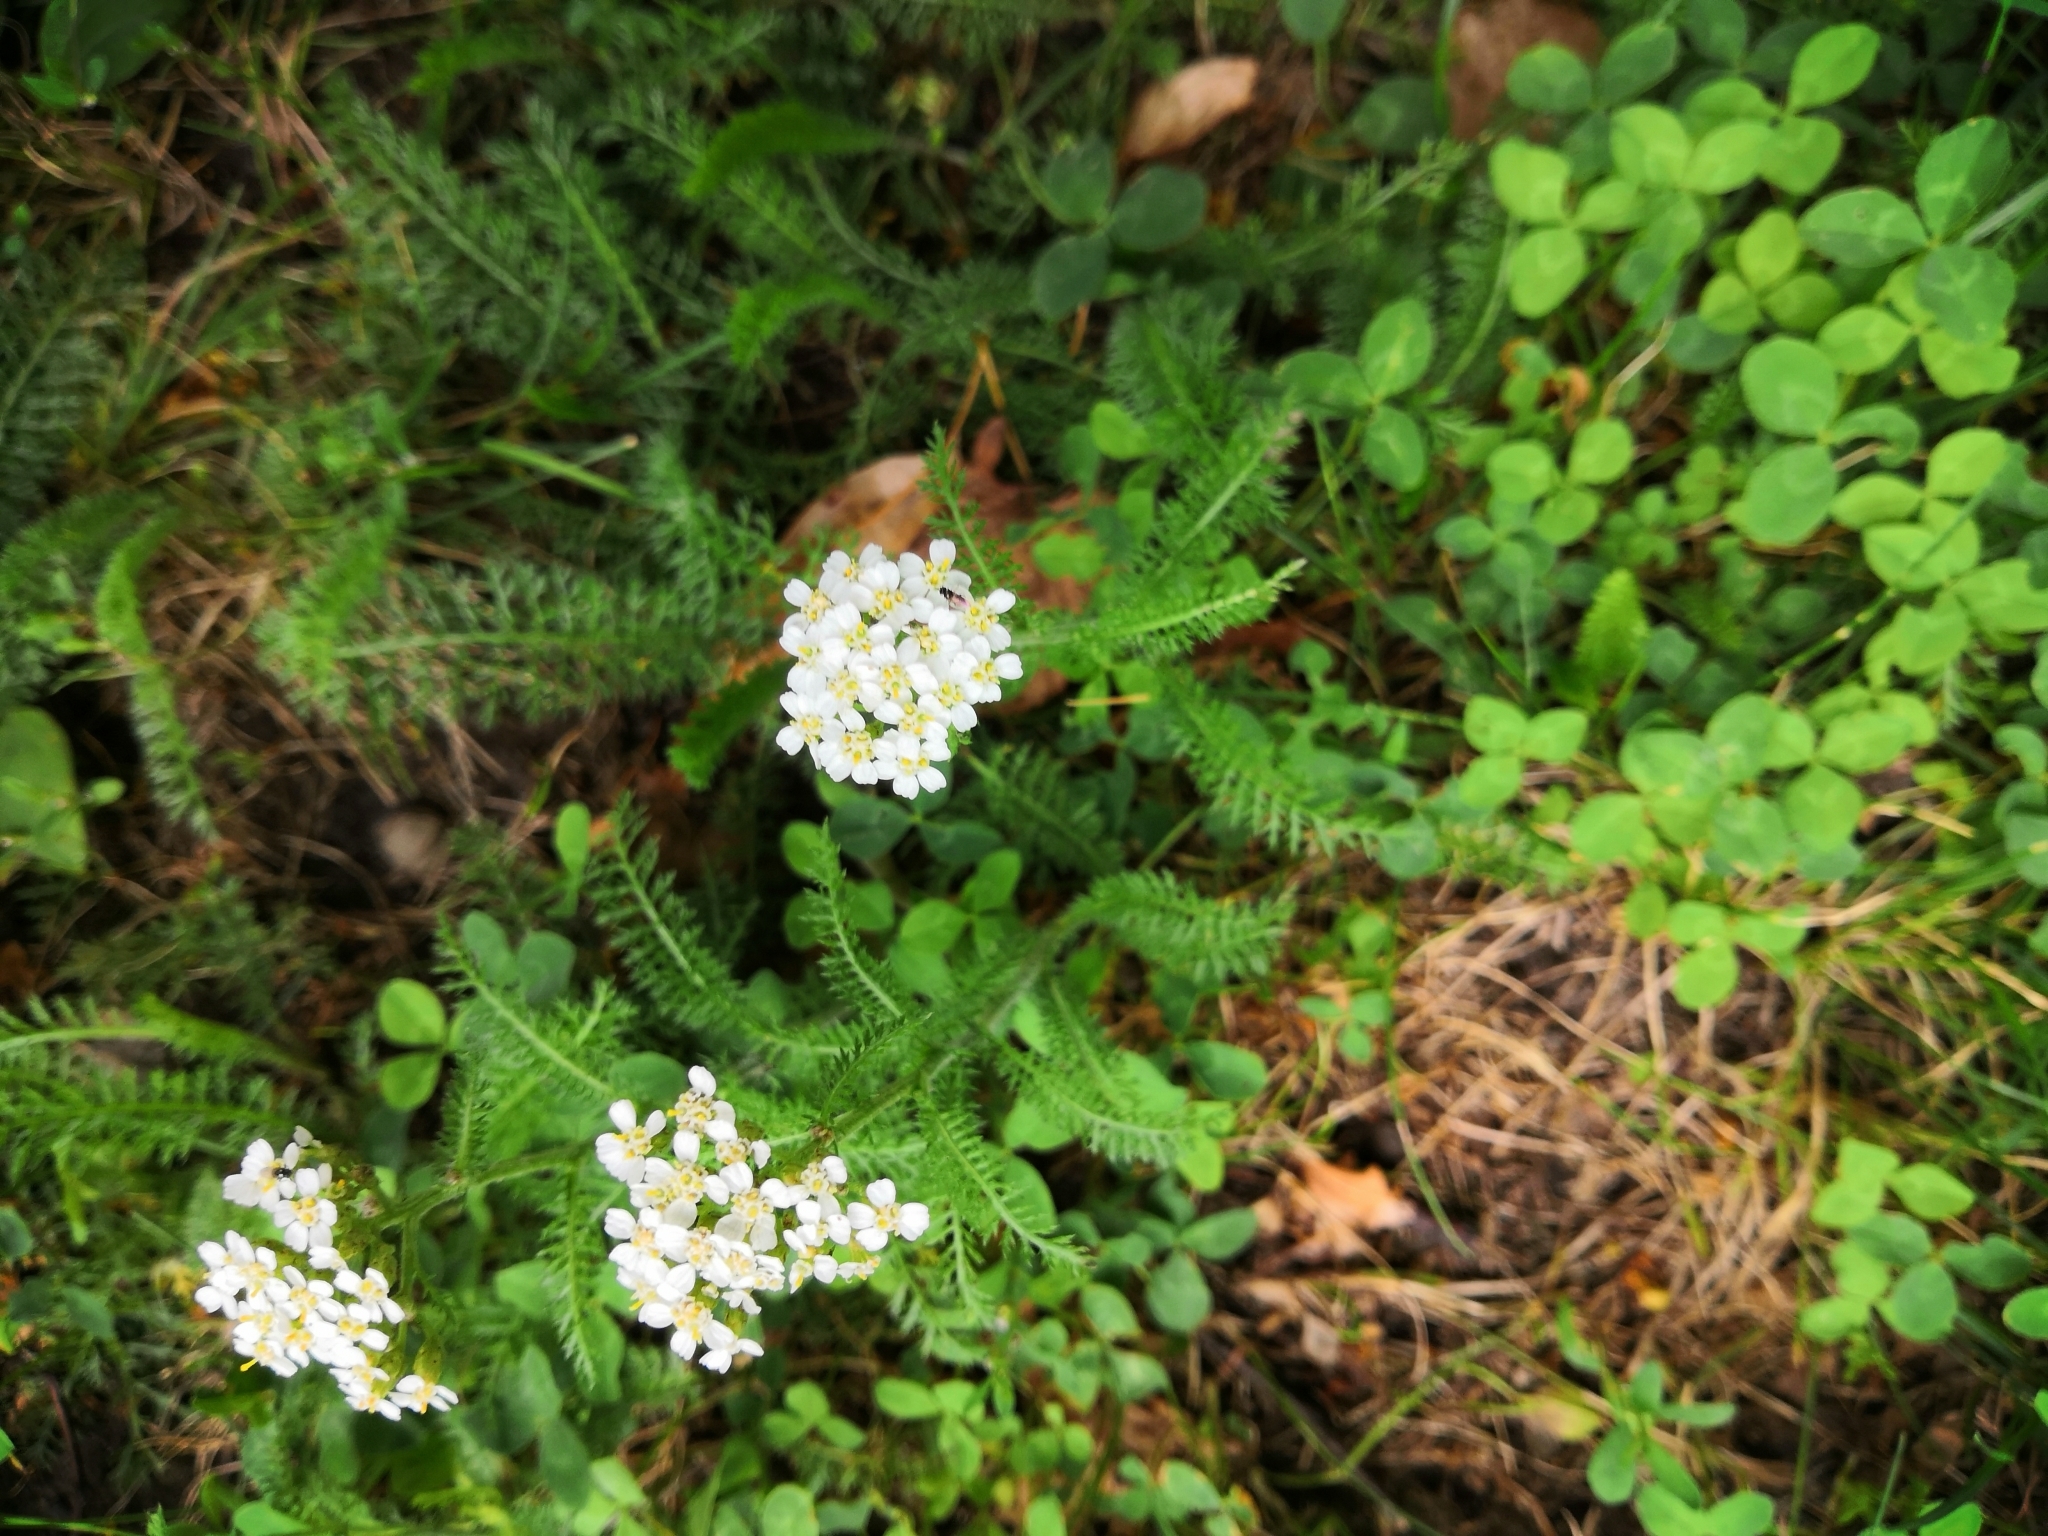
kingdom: Plantae
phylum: Tracheophyta
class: Magnoliopsida
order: Asterales
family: Asteraceae
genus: Achillea
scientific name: Achillea millefolium
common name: Yarrow
